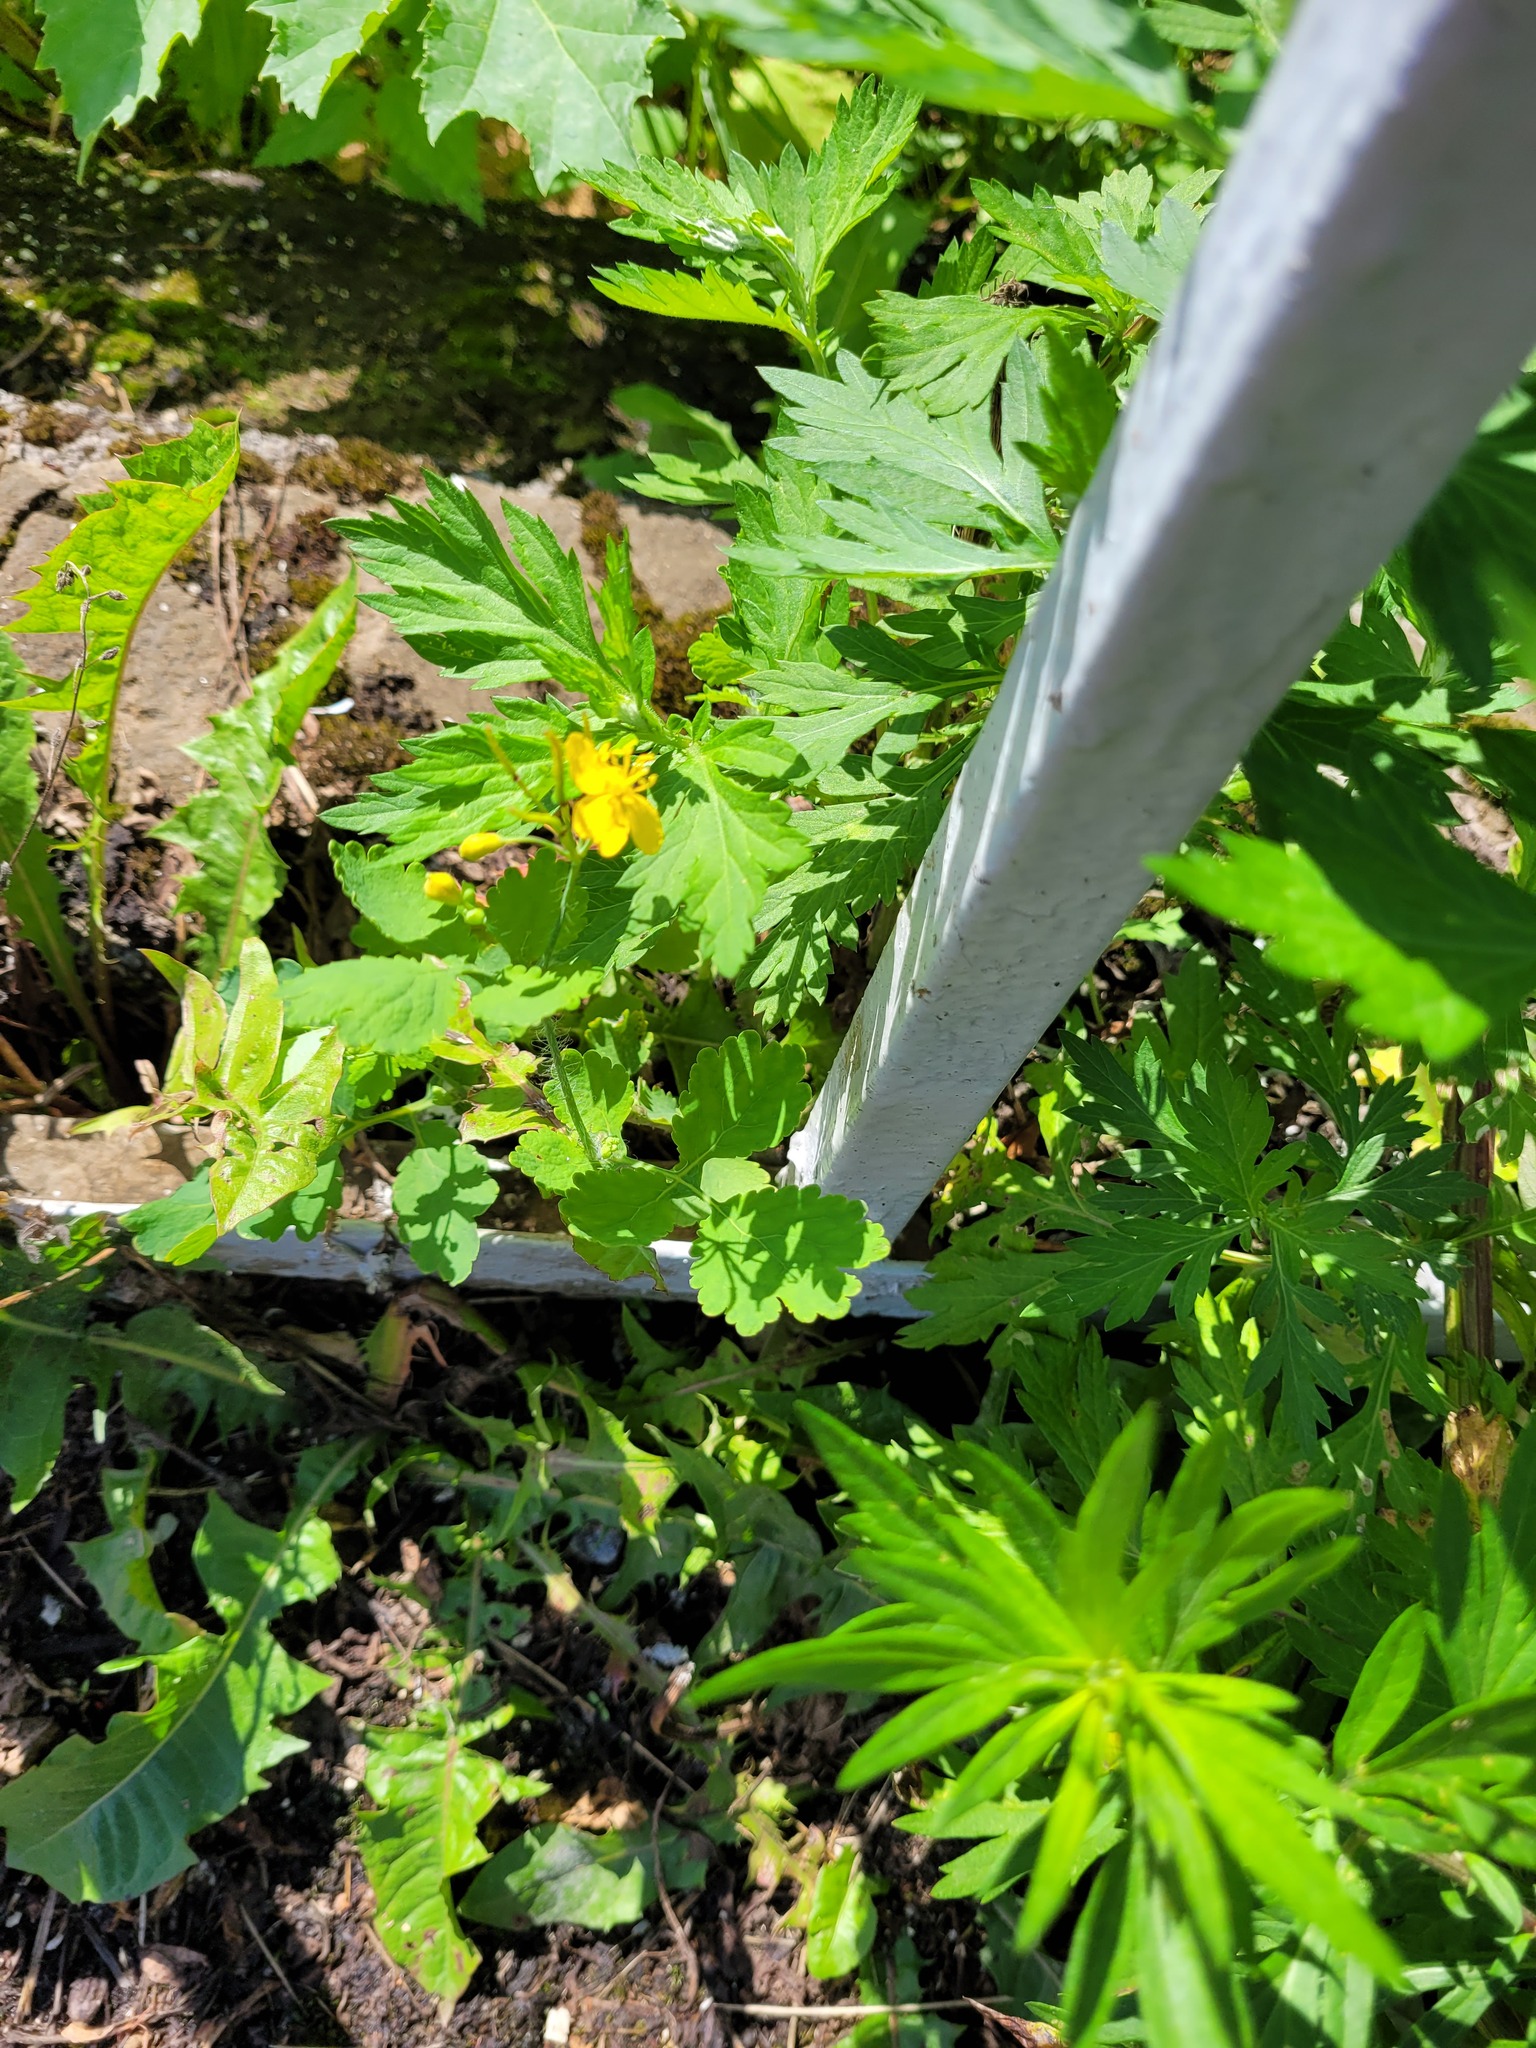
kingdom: Plantae
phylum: Tracheophyta
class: Magnoliopsida
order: Ranunculales
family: Papaveraceae
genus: Chelidonium
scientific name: Chelidonium majus
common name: Greater celandine
